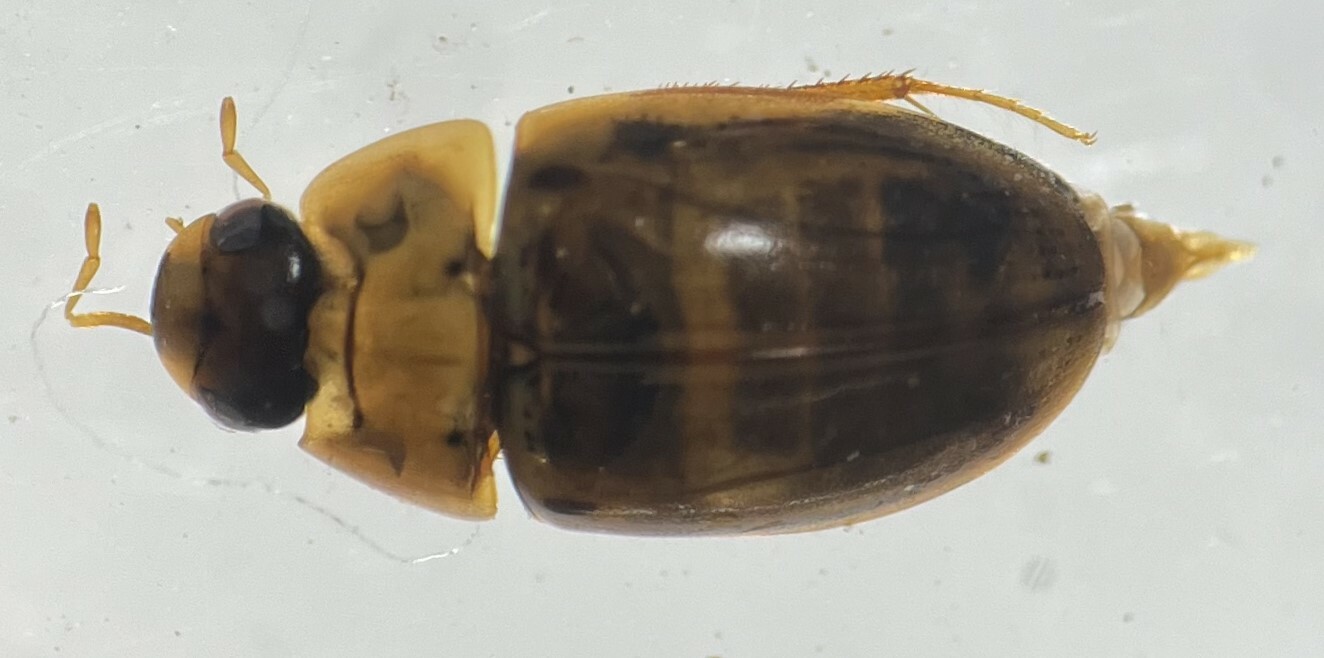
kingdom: Animalia
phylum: Arthropoda
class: Insecta
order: Coleoptera
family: Hydrophilidae
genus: Enochrus
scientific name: Enochrus pygmaeus
